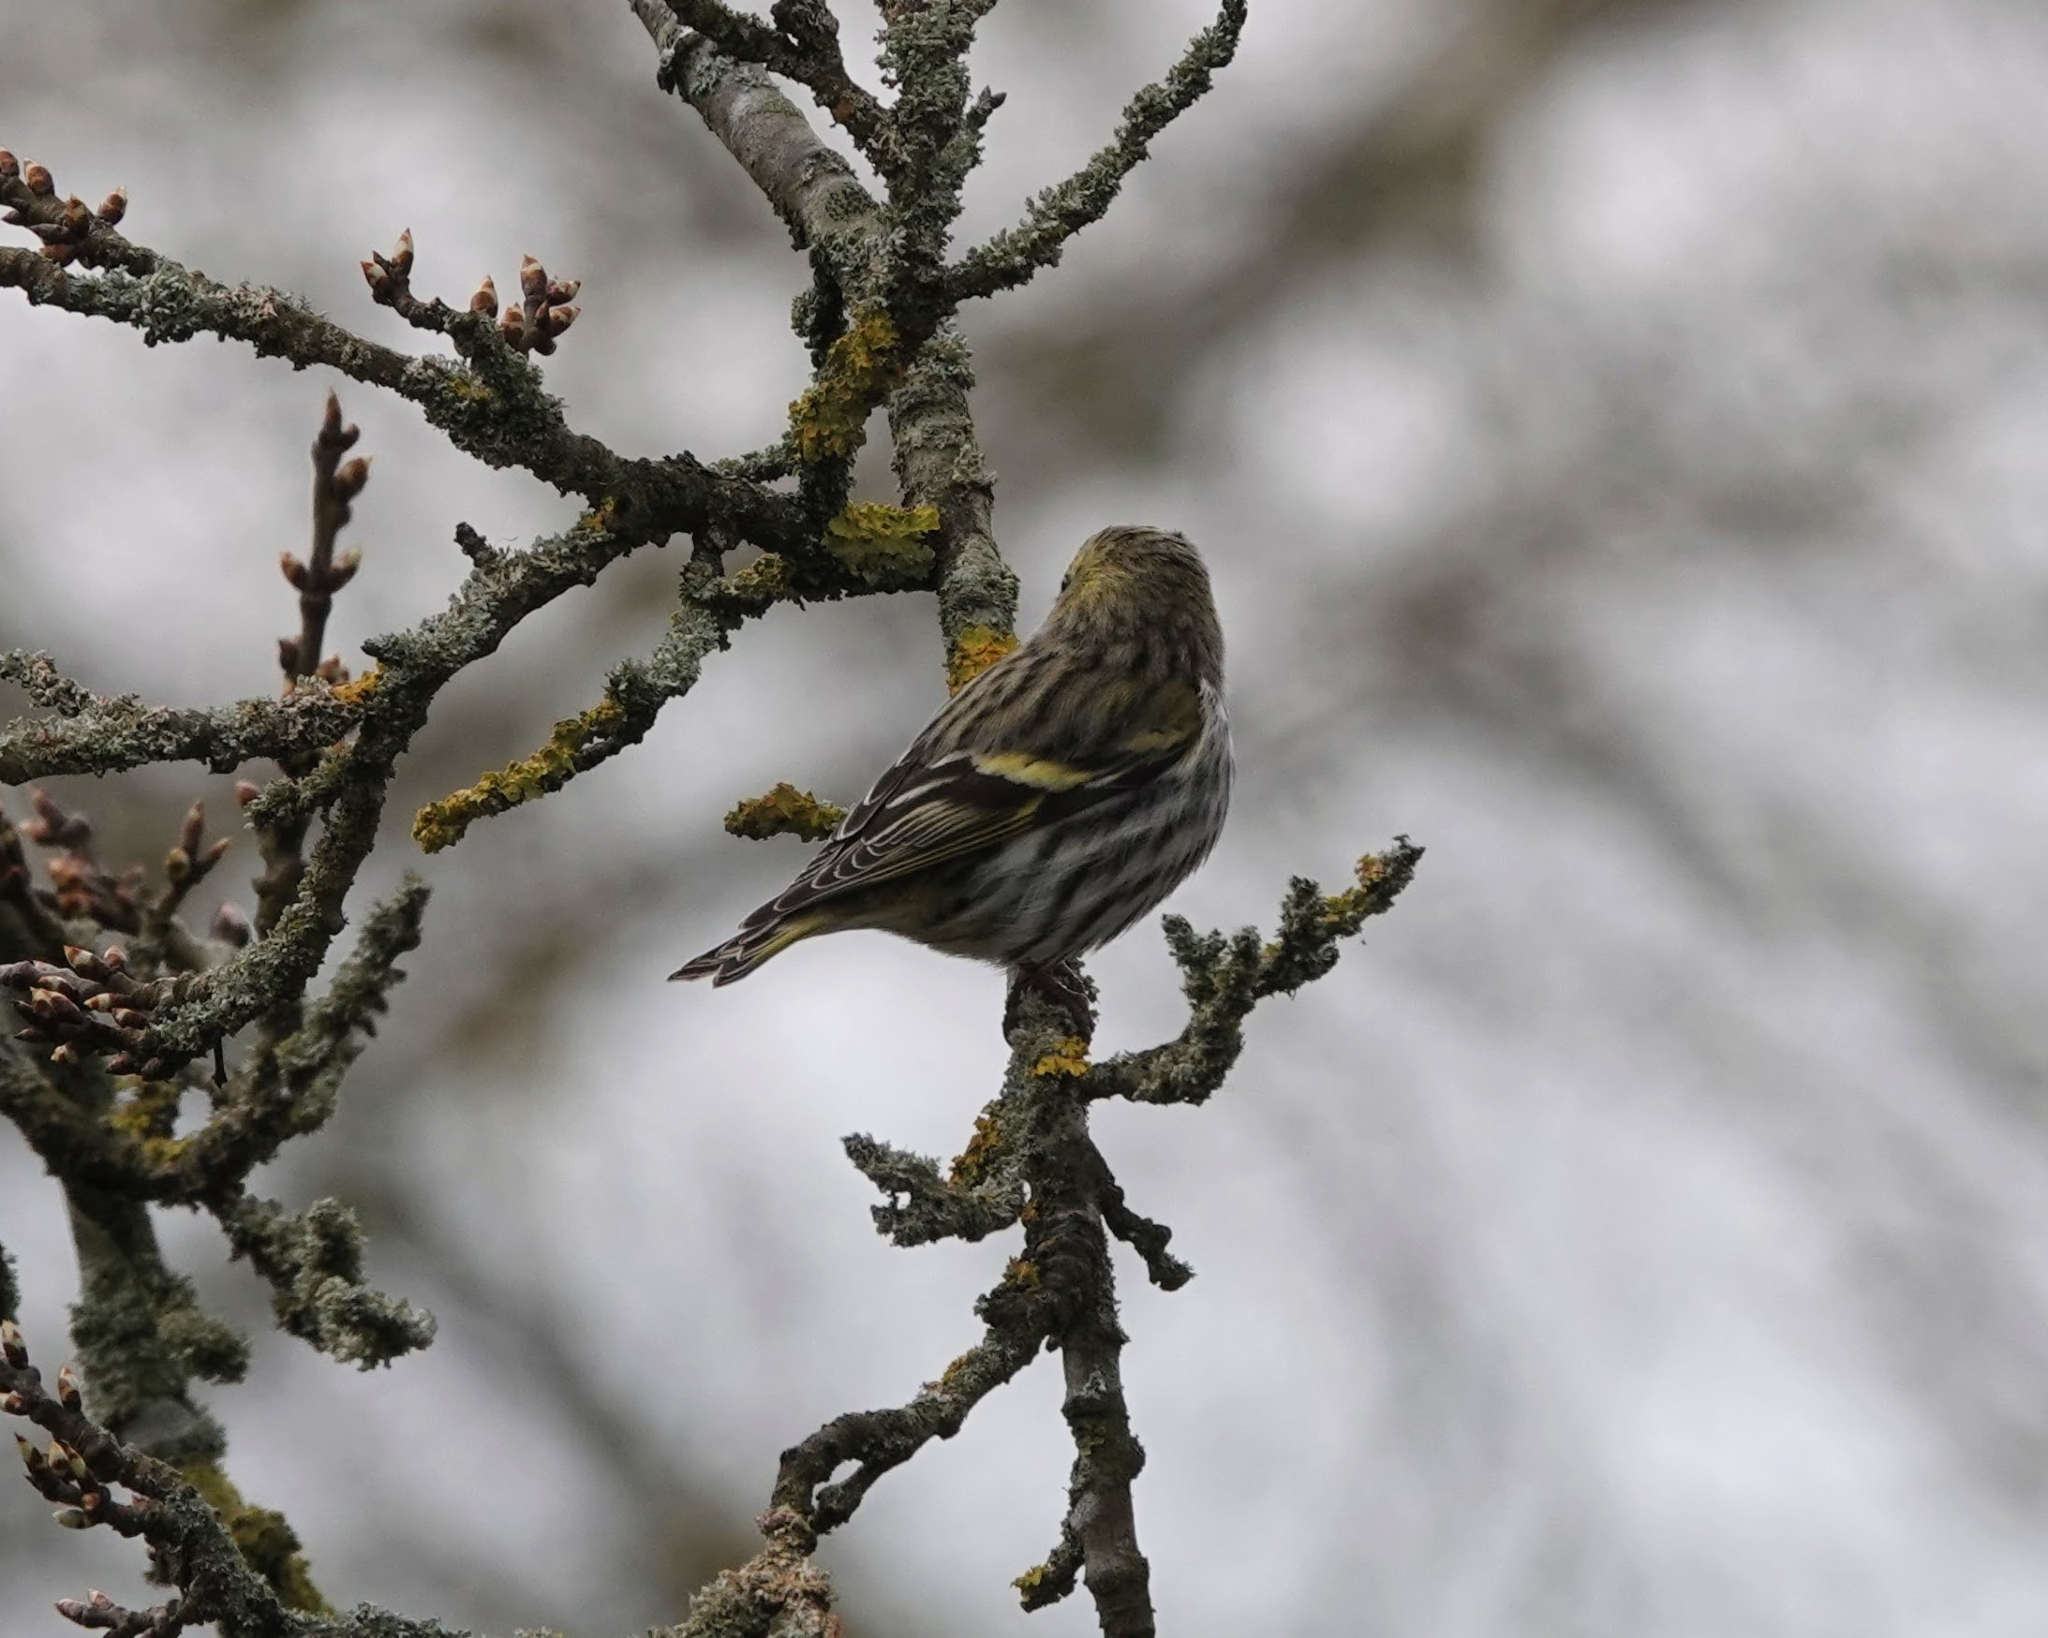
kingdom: Animalia
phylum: Chordata
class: Aves
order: Passeriformes
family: Fringillidae
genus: Spinus
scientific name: Spinus spinus
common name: Eurasian siskin
